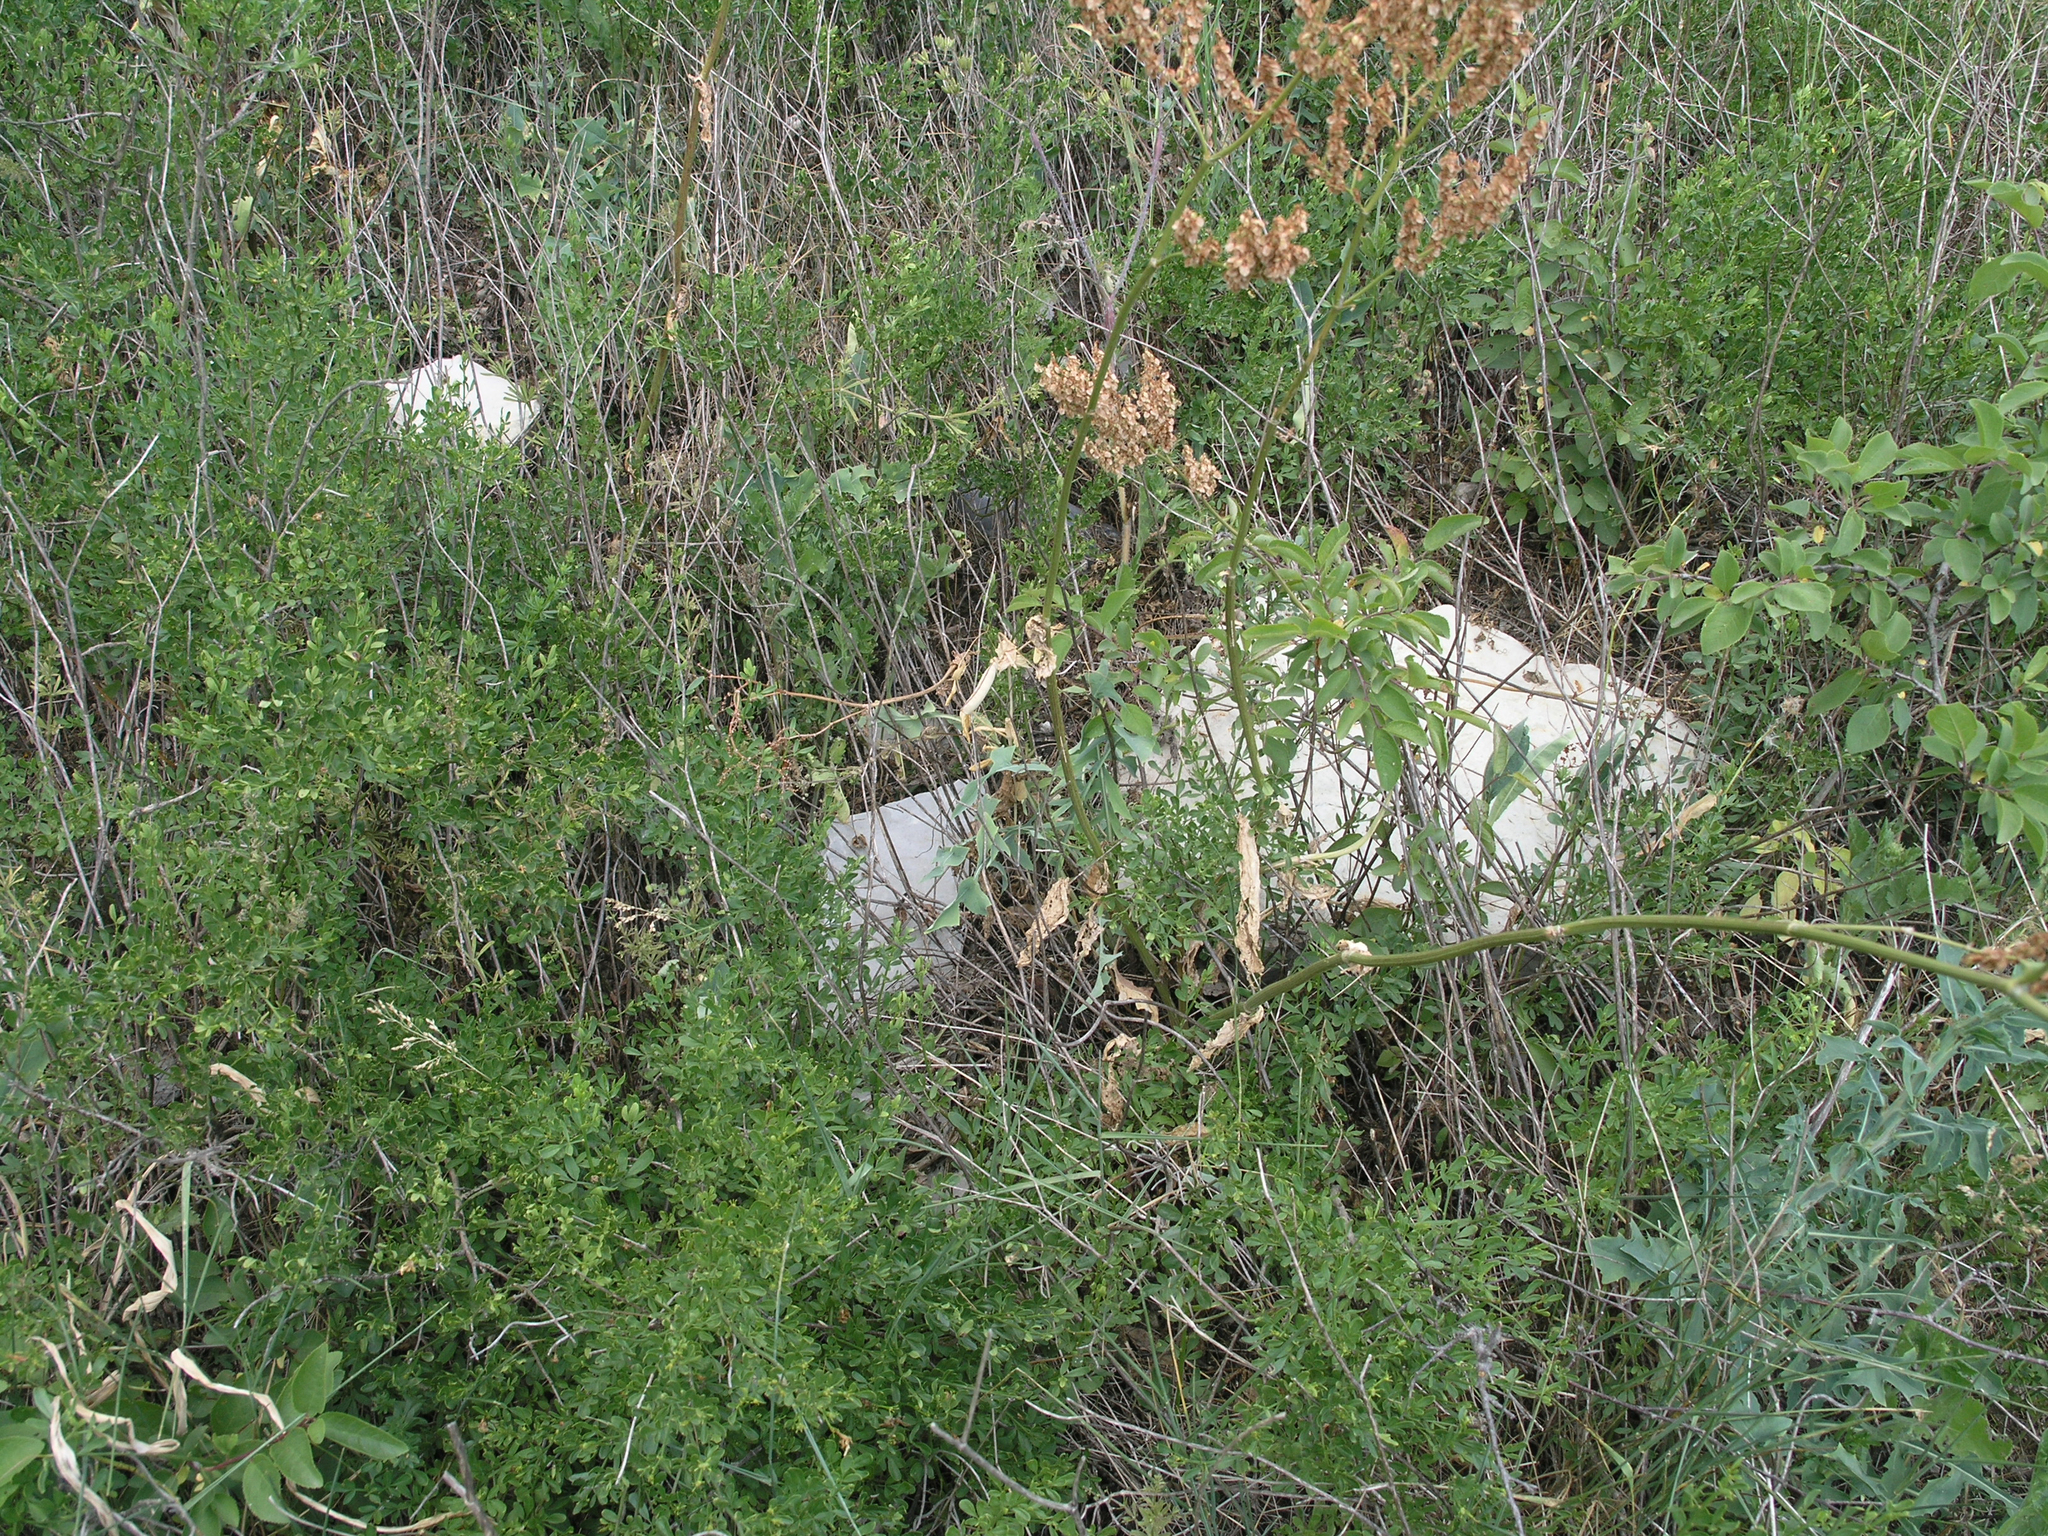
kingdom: Plantae
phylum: Tracheophyta
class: Magnoliopsida
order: Fabales
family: Fabaceae
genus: Lathyrus
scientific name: Lathyrus oleraceus
